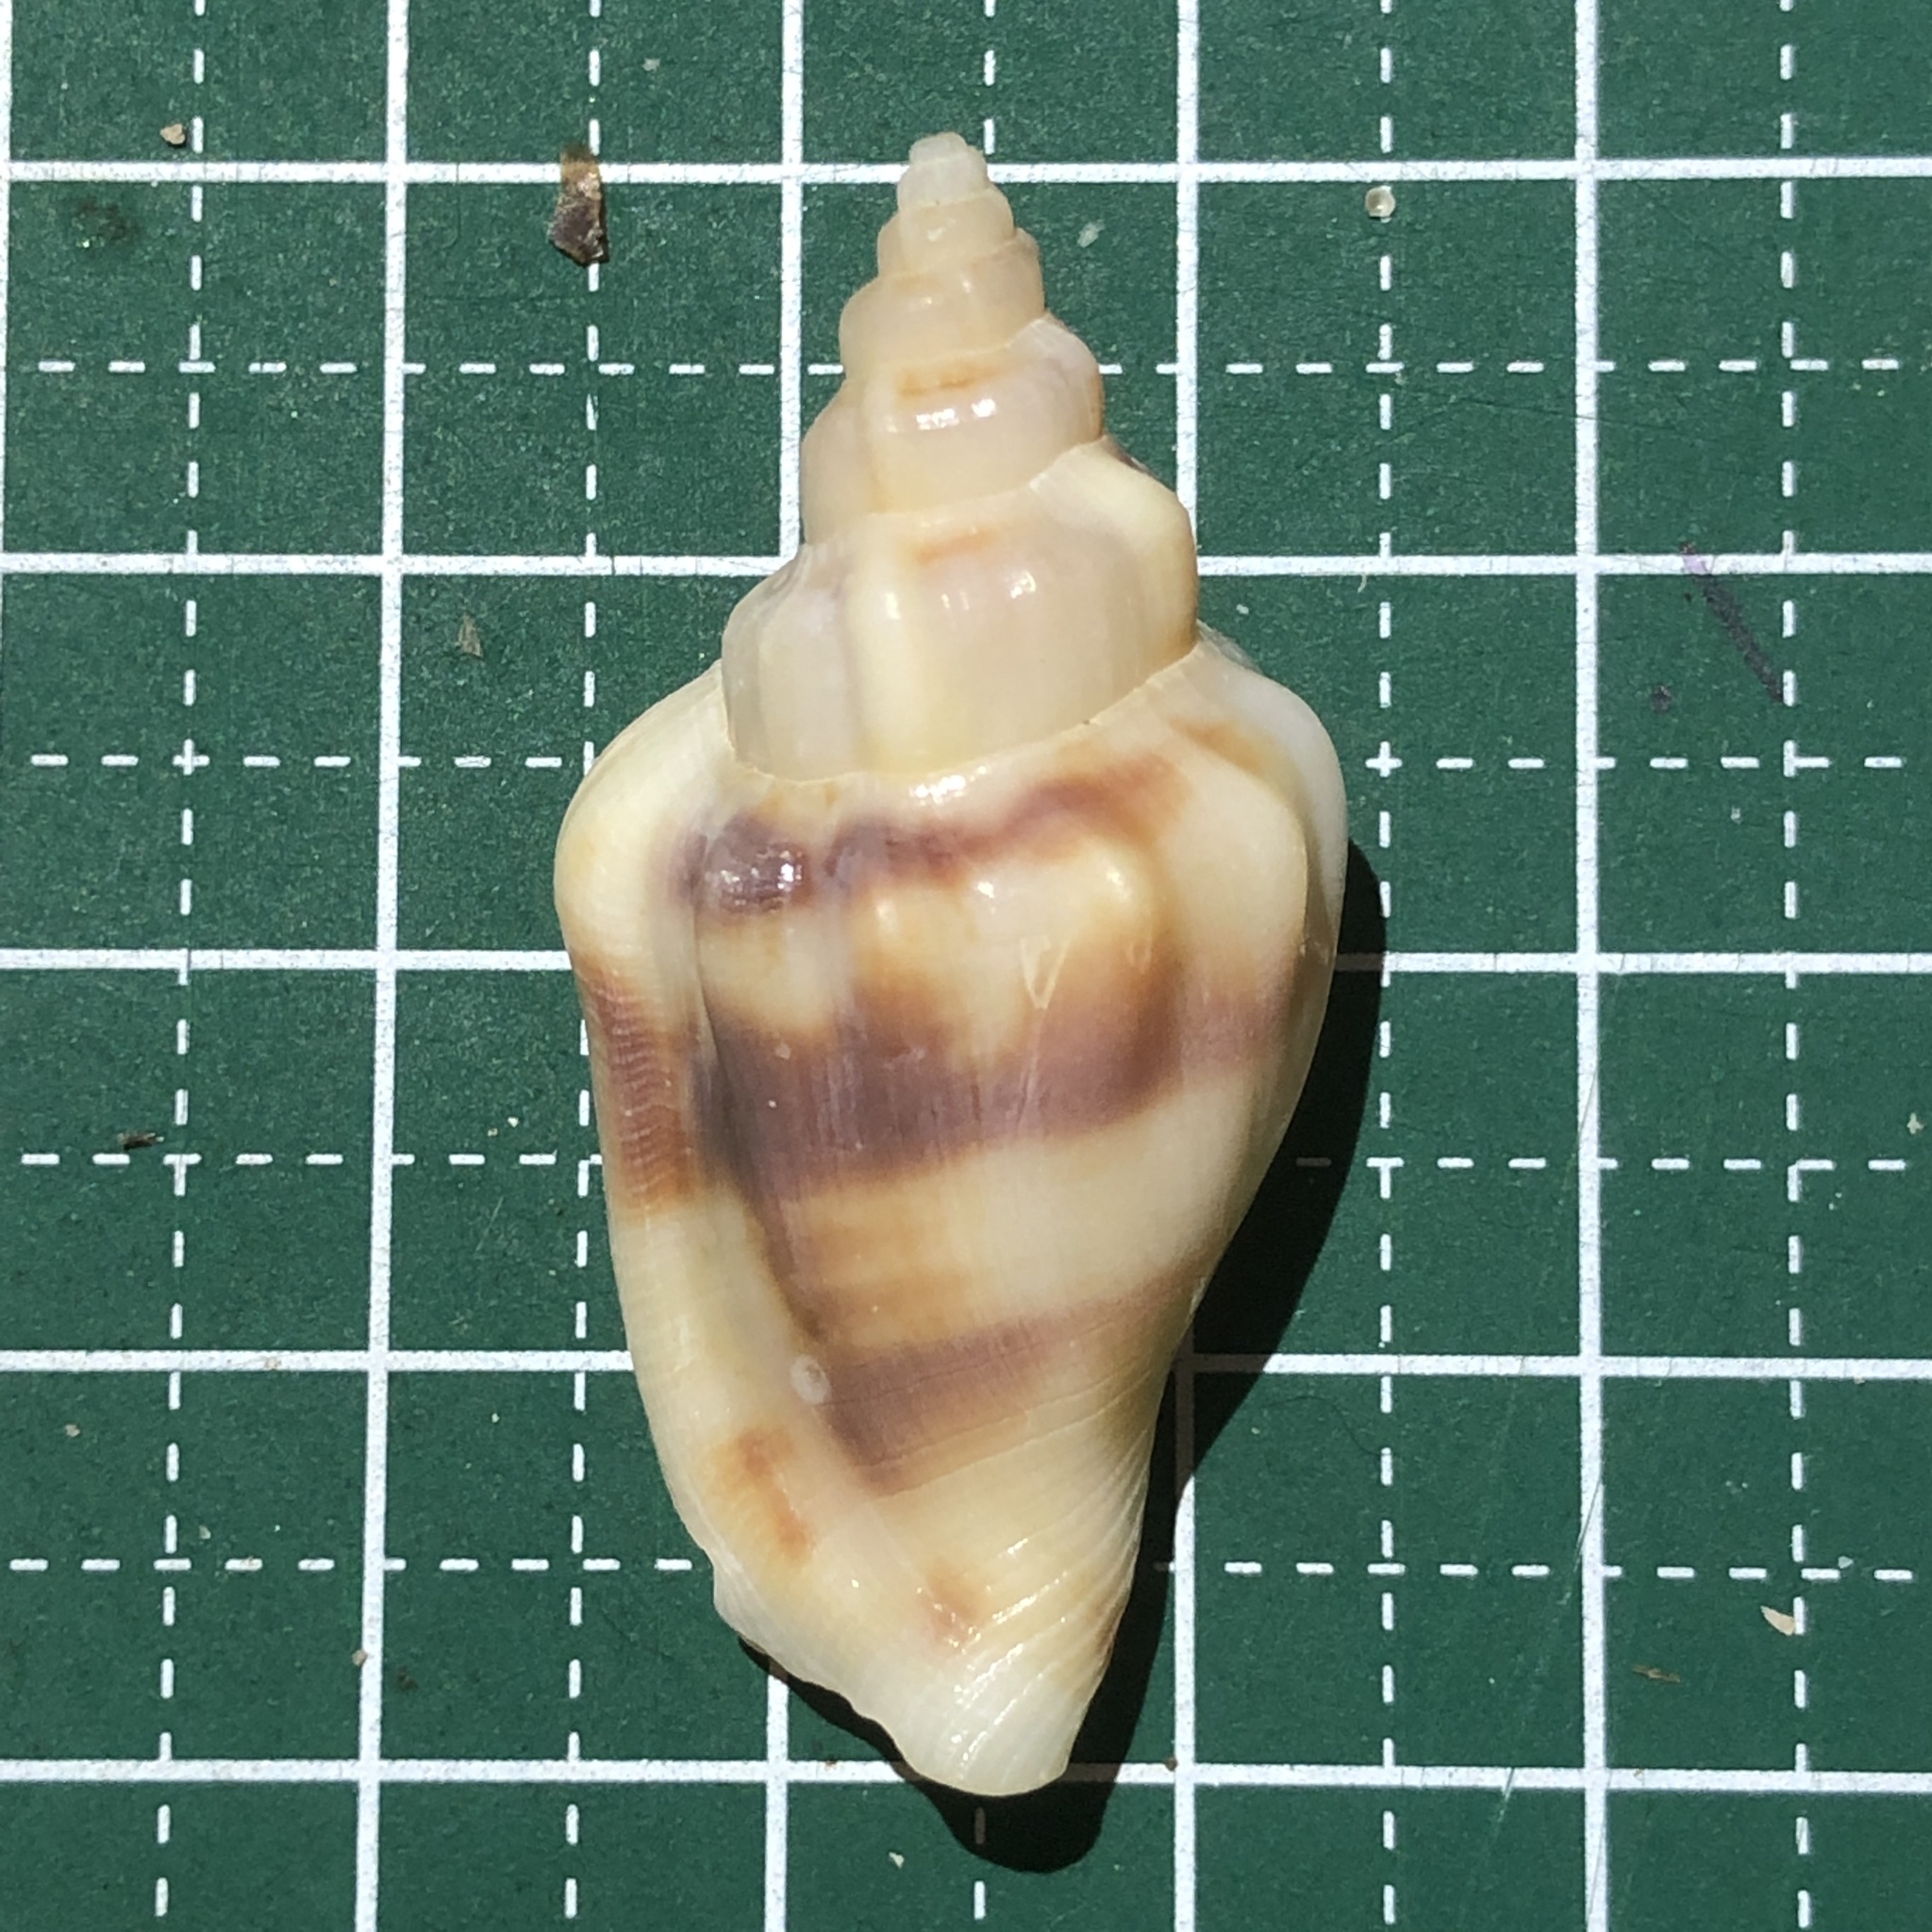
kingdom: Animalia
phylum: Mollusca
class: Gastropoda
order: Littorinimorpha
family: Strombidae
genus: Canarium
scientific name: Canarium urceus
